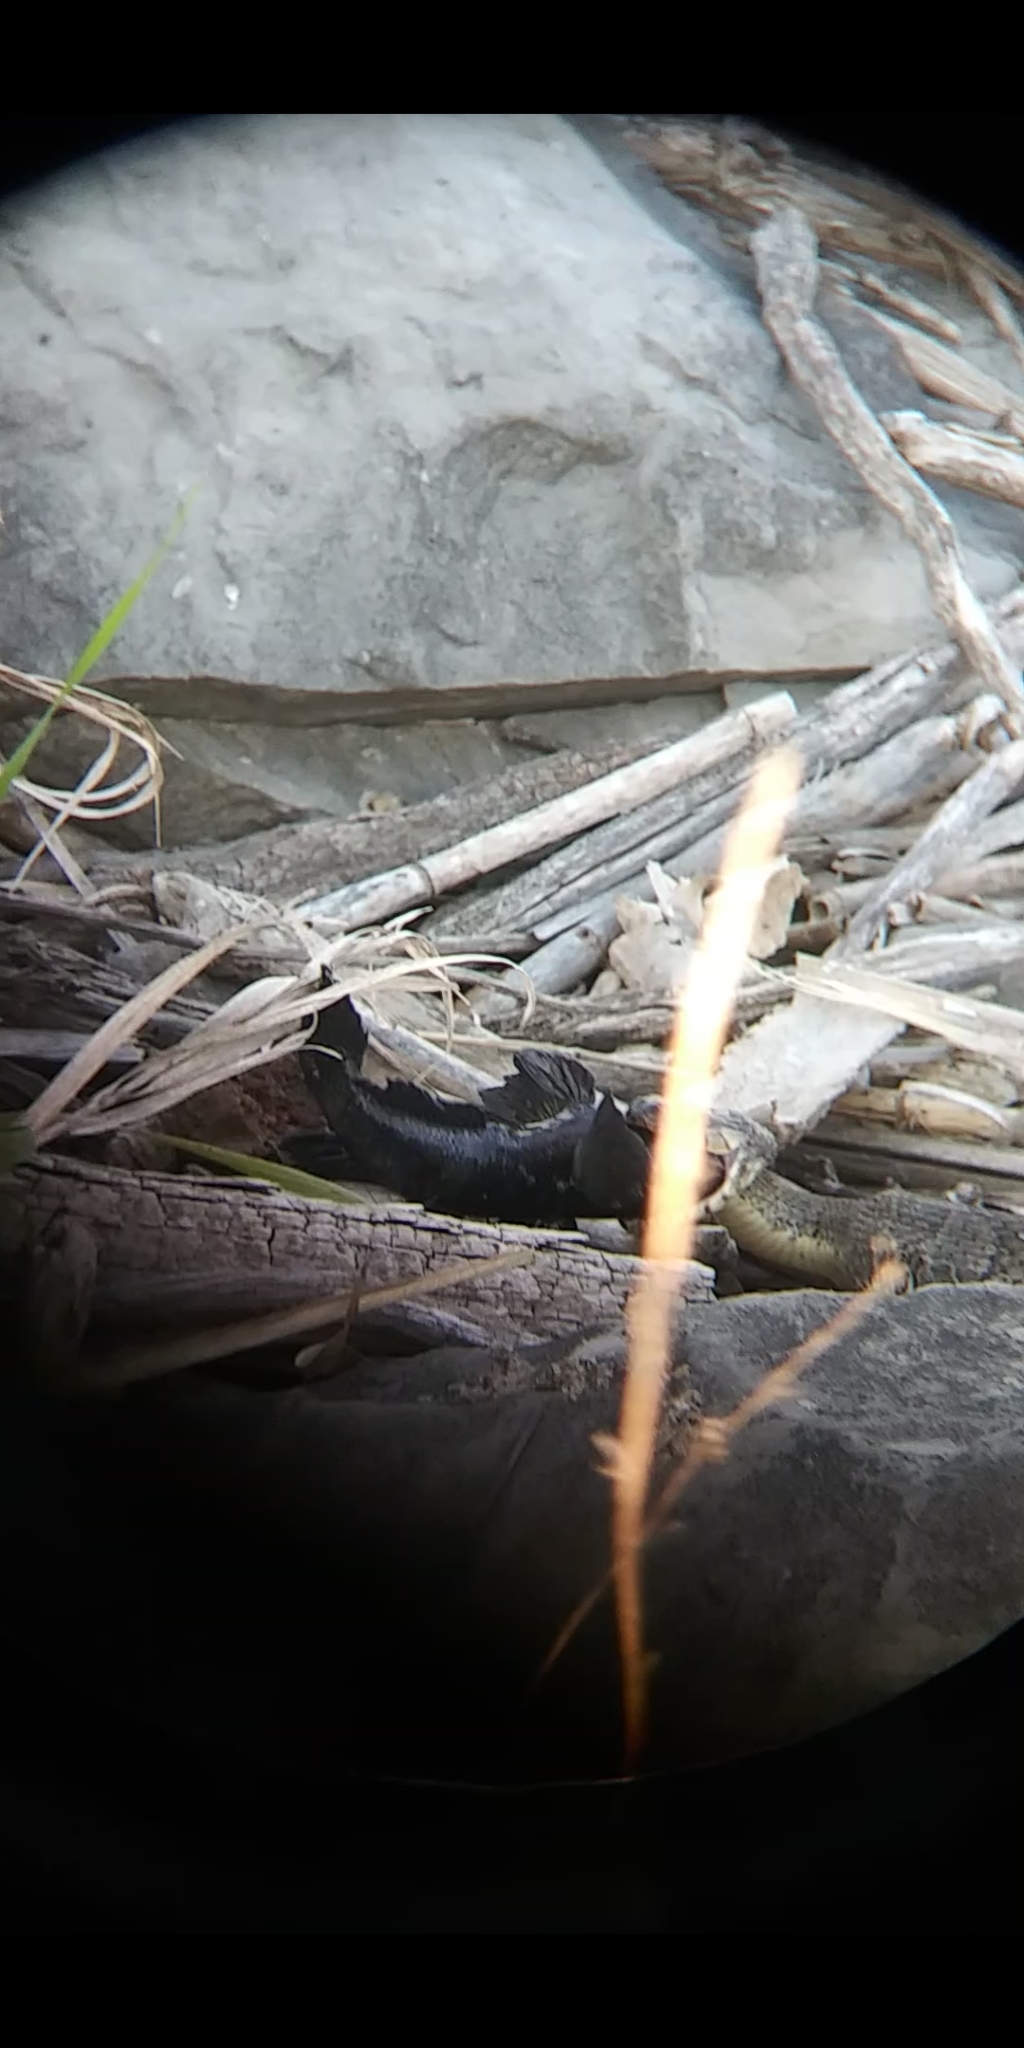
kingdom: Animalia
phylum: Chordata
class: Squamata
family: Colubridae
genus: Nerodia
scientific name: Nerodia sipedon
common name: Northern water snake
